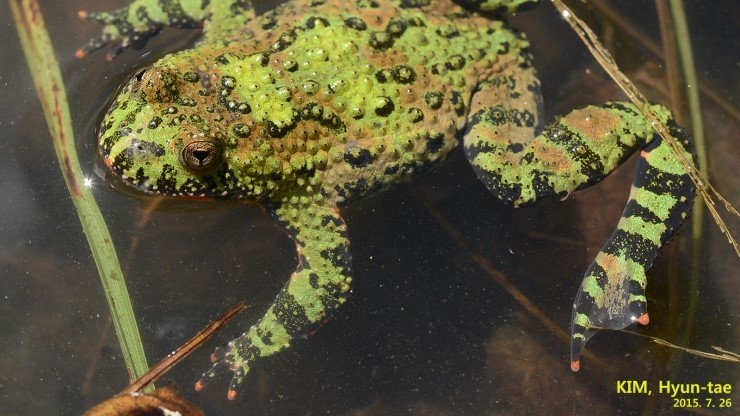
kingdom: Animalia
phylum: Chordata
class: Amphibia
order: Anura
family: Bombinatoridae
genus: Bombina
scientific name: Bombina orientalis
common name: Oriental firebelly toad
